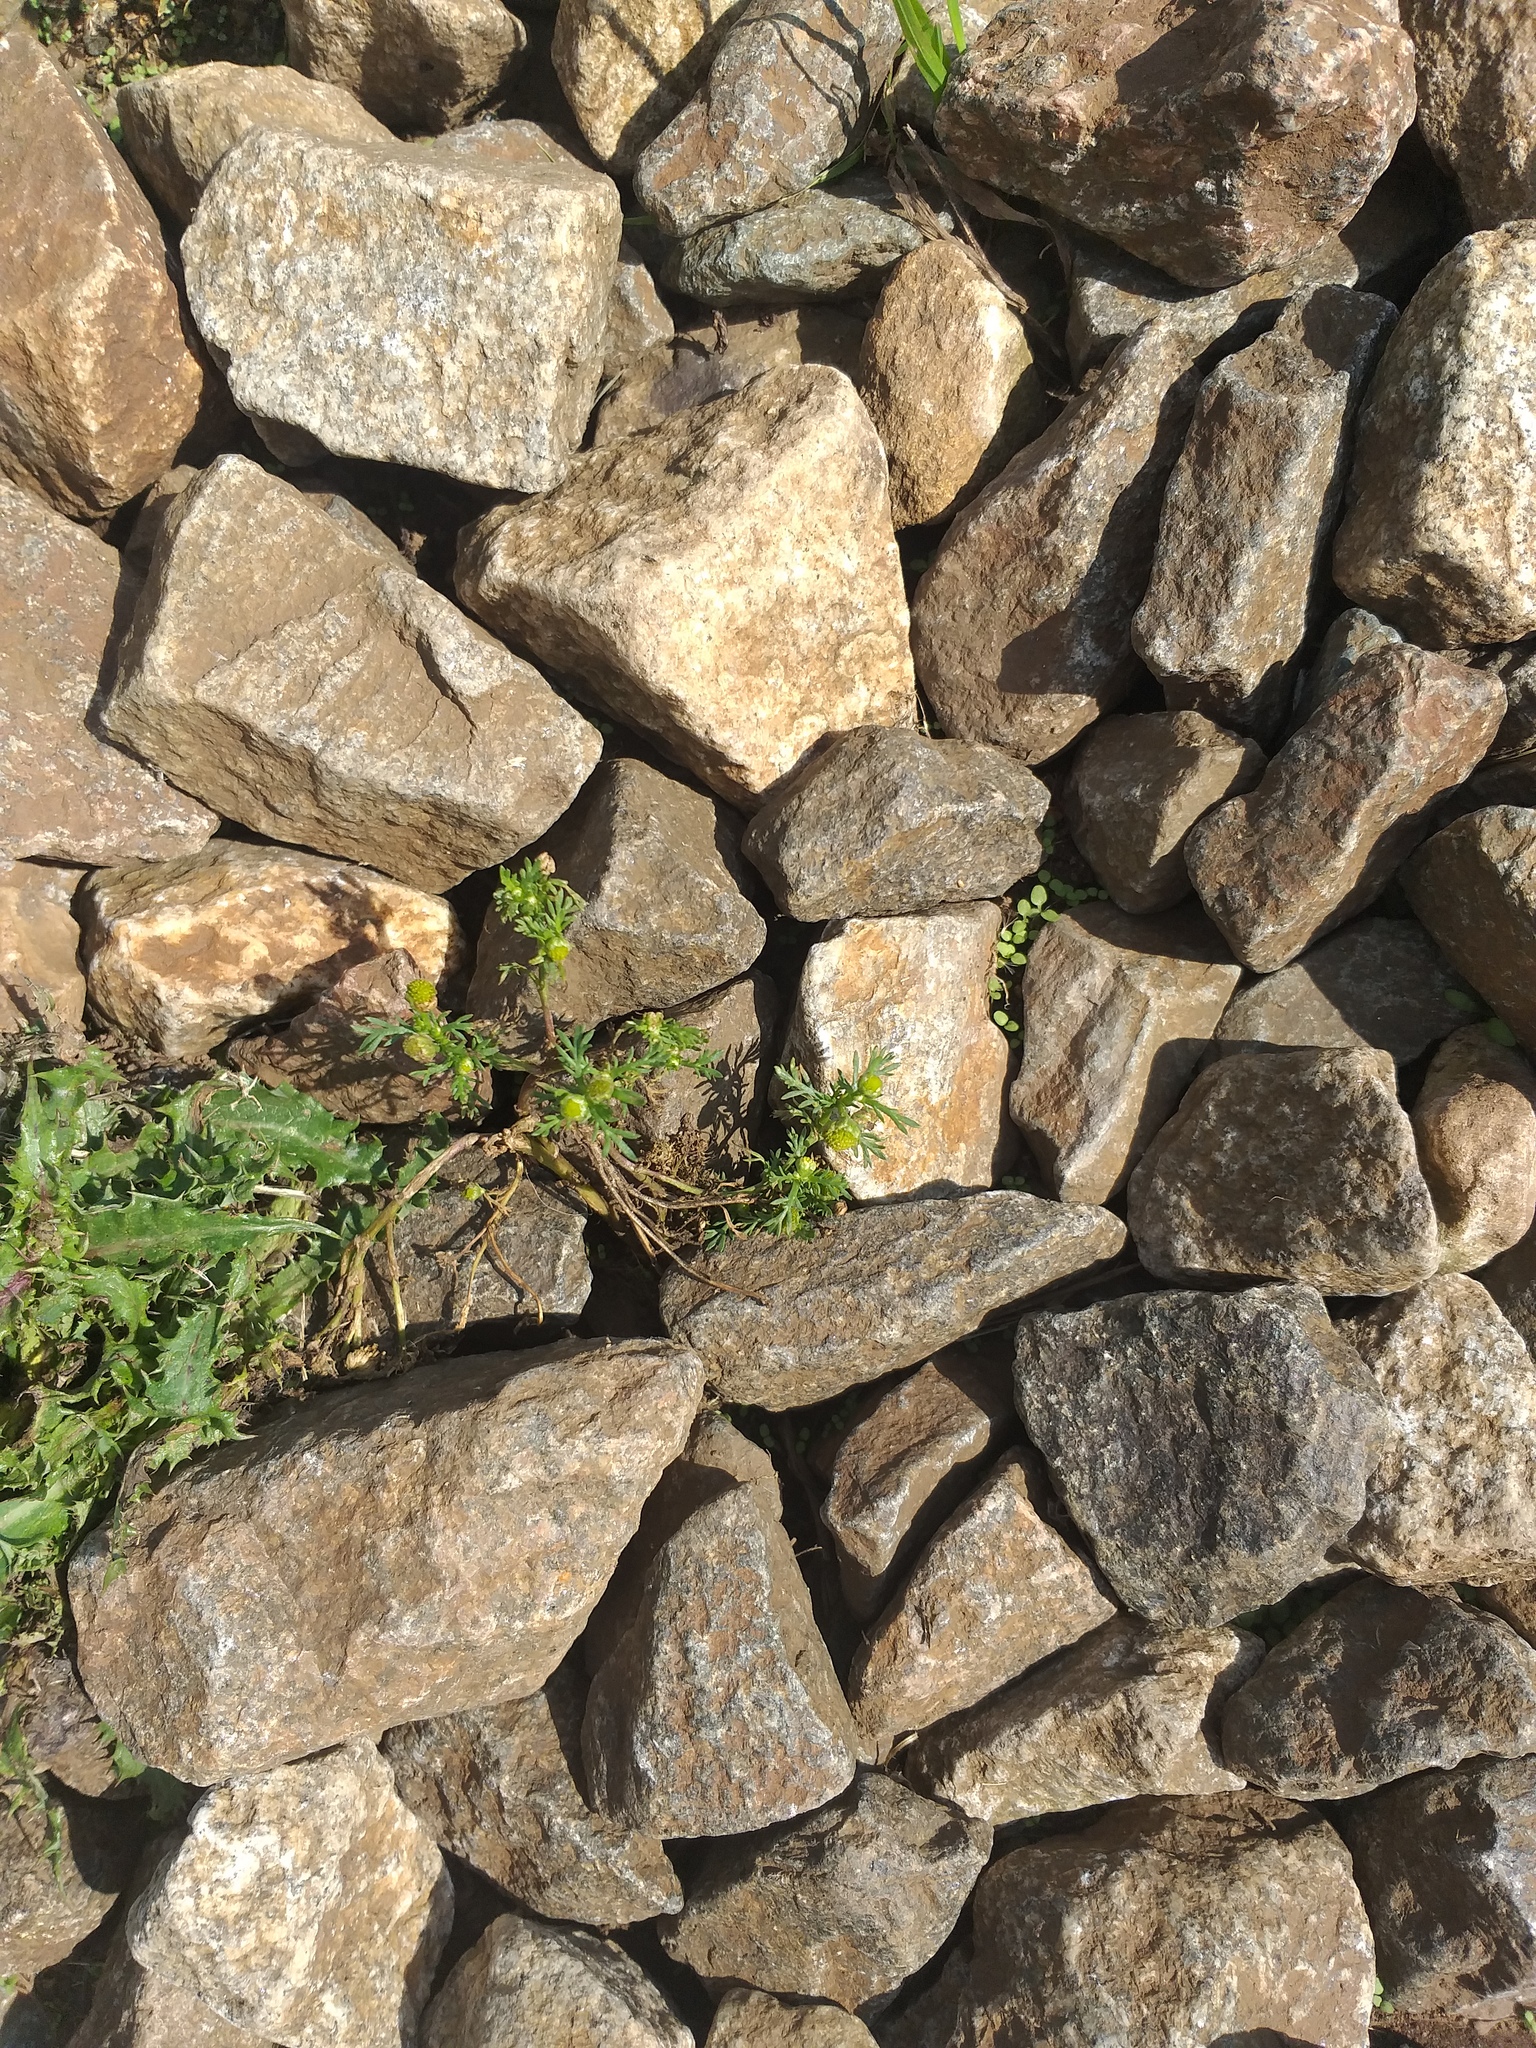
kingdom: Plantae
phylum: Tracheophyta
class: Magnoliopsida
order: Asterales
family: Asteraceae
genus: Matricaria
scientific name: Matricaria discoidea
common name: Disc mayweed
